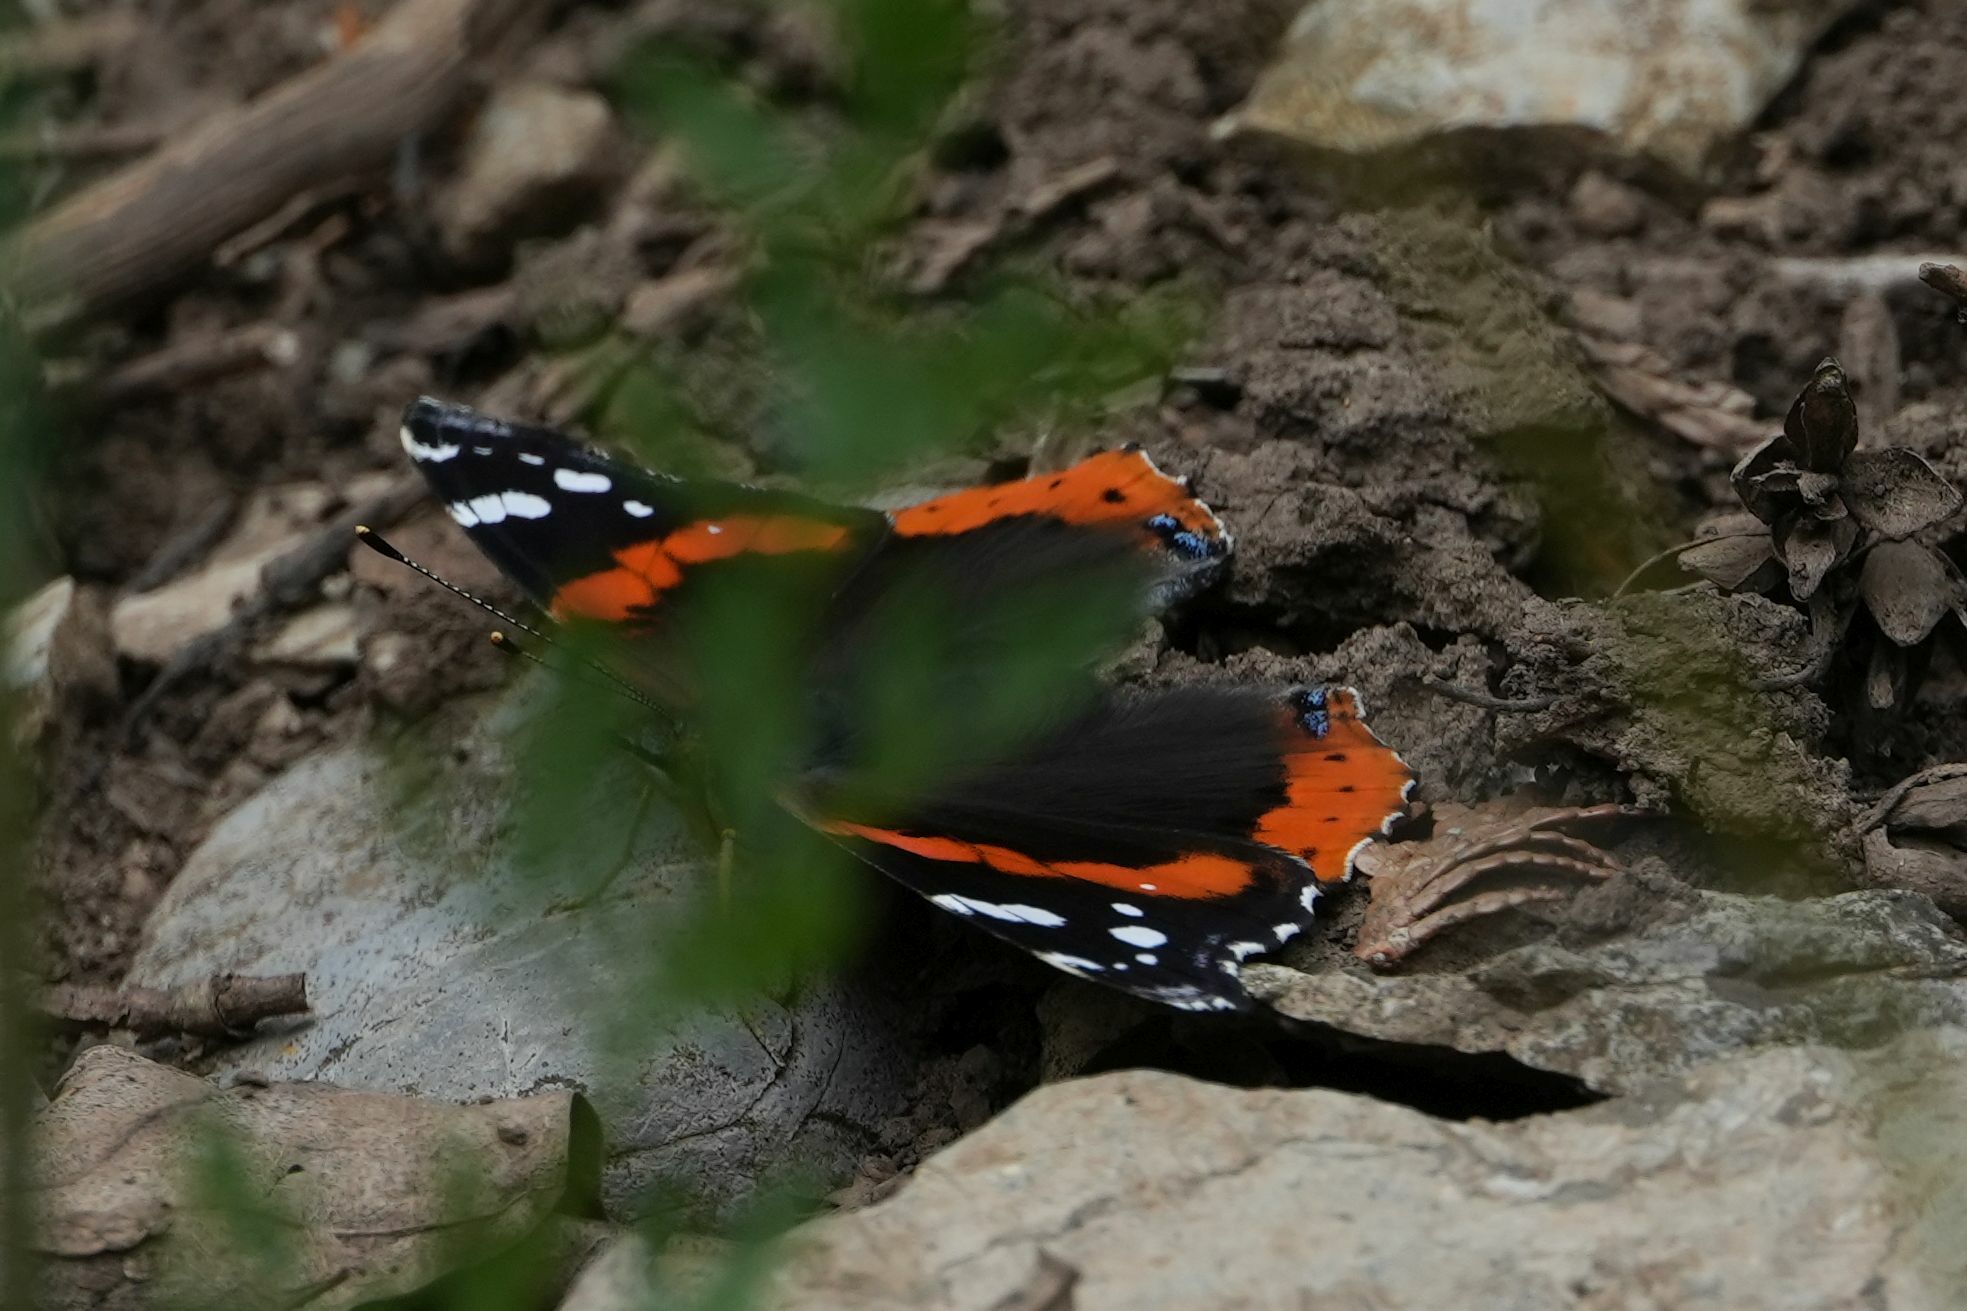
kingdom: Animalia
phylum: Arthropoda
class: Insecta
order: Lepidoptera
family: Nymphalidae
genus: Vanessa
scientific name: Vanessa atalanta
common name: Red admiral
